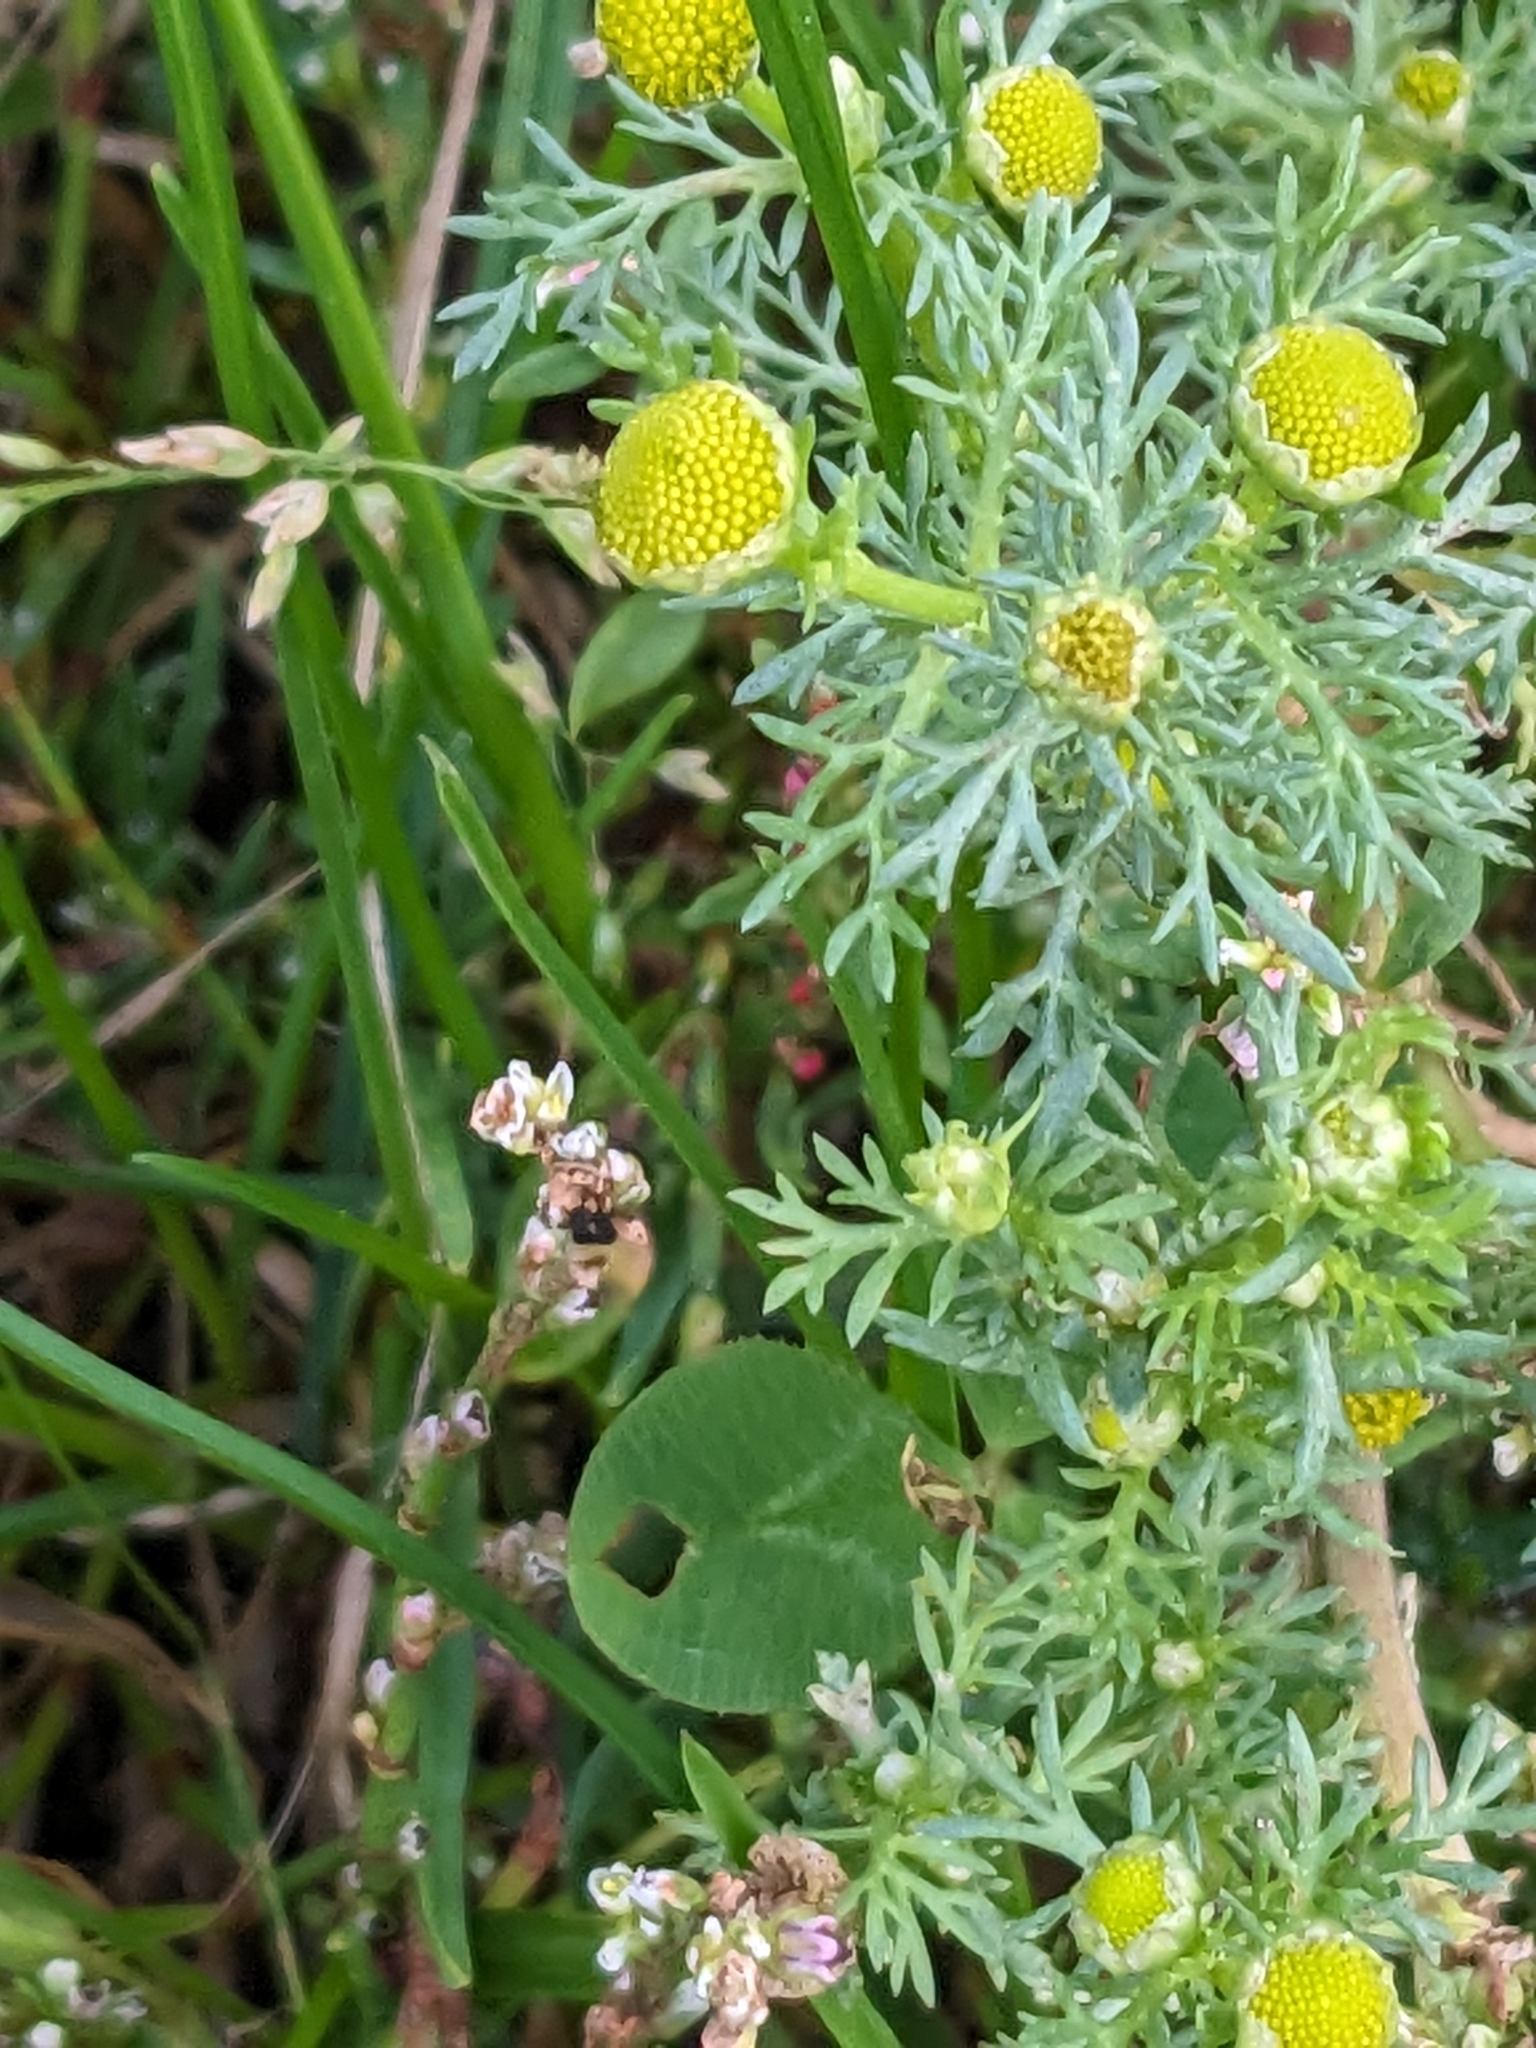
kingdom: Plantae
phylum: Tracheophyta
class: Magnoliopsida
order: Asterales
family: Asteraceae
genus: Matricaria
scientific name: Matricaria discoidea
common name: Disc mayweed
